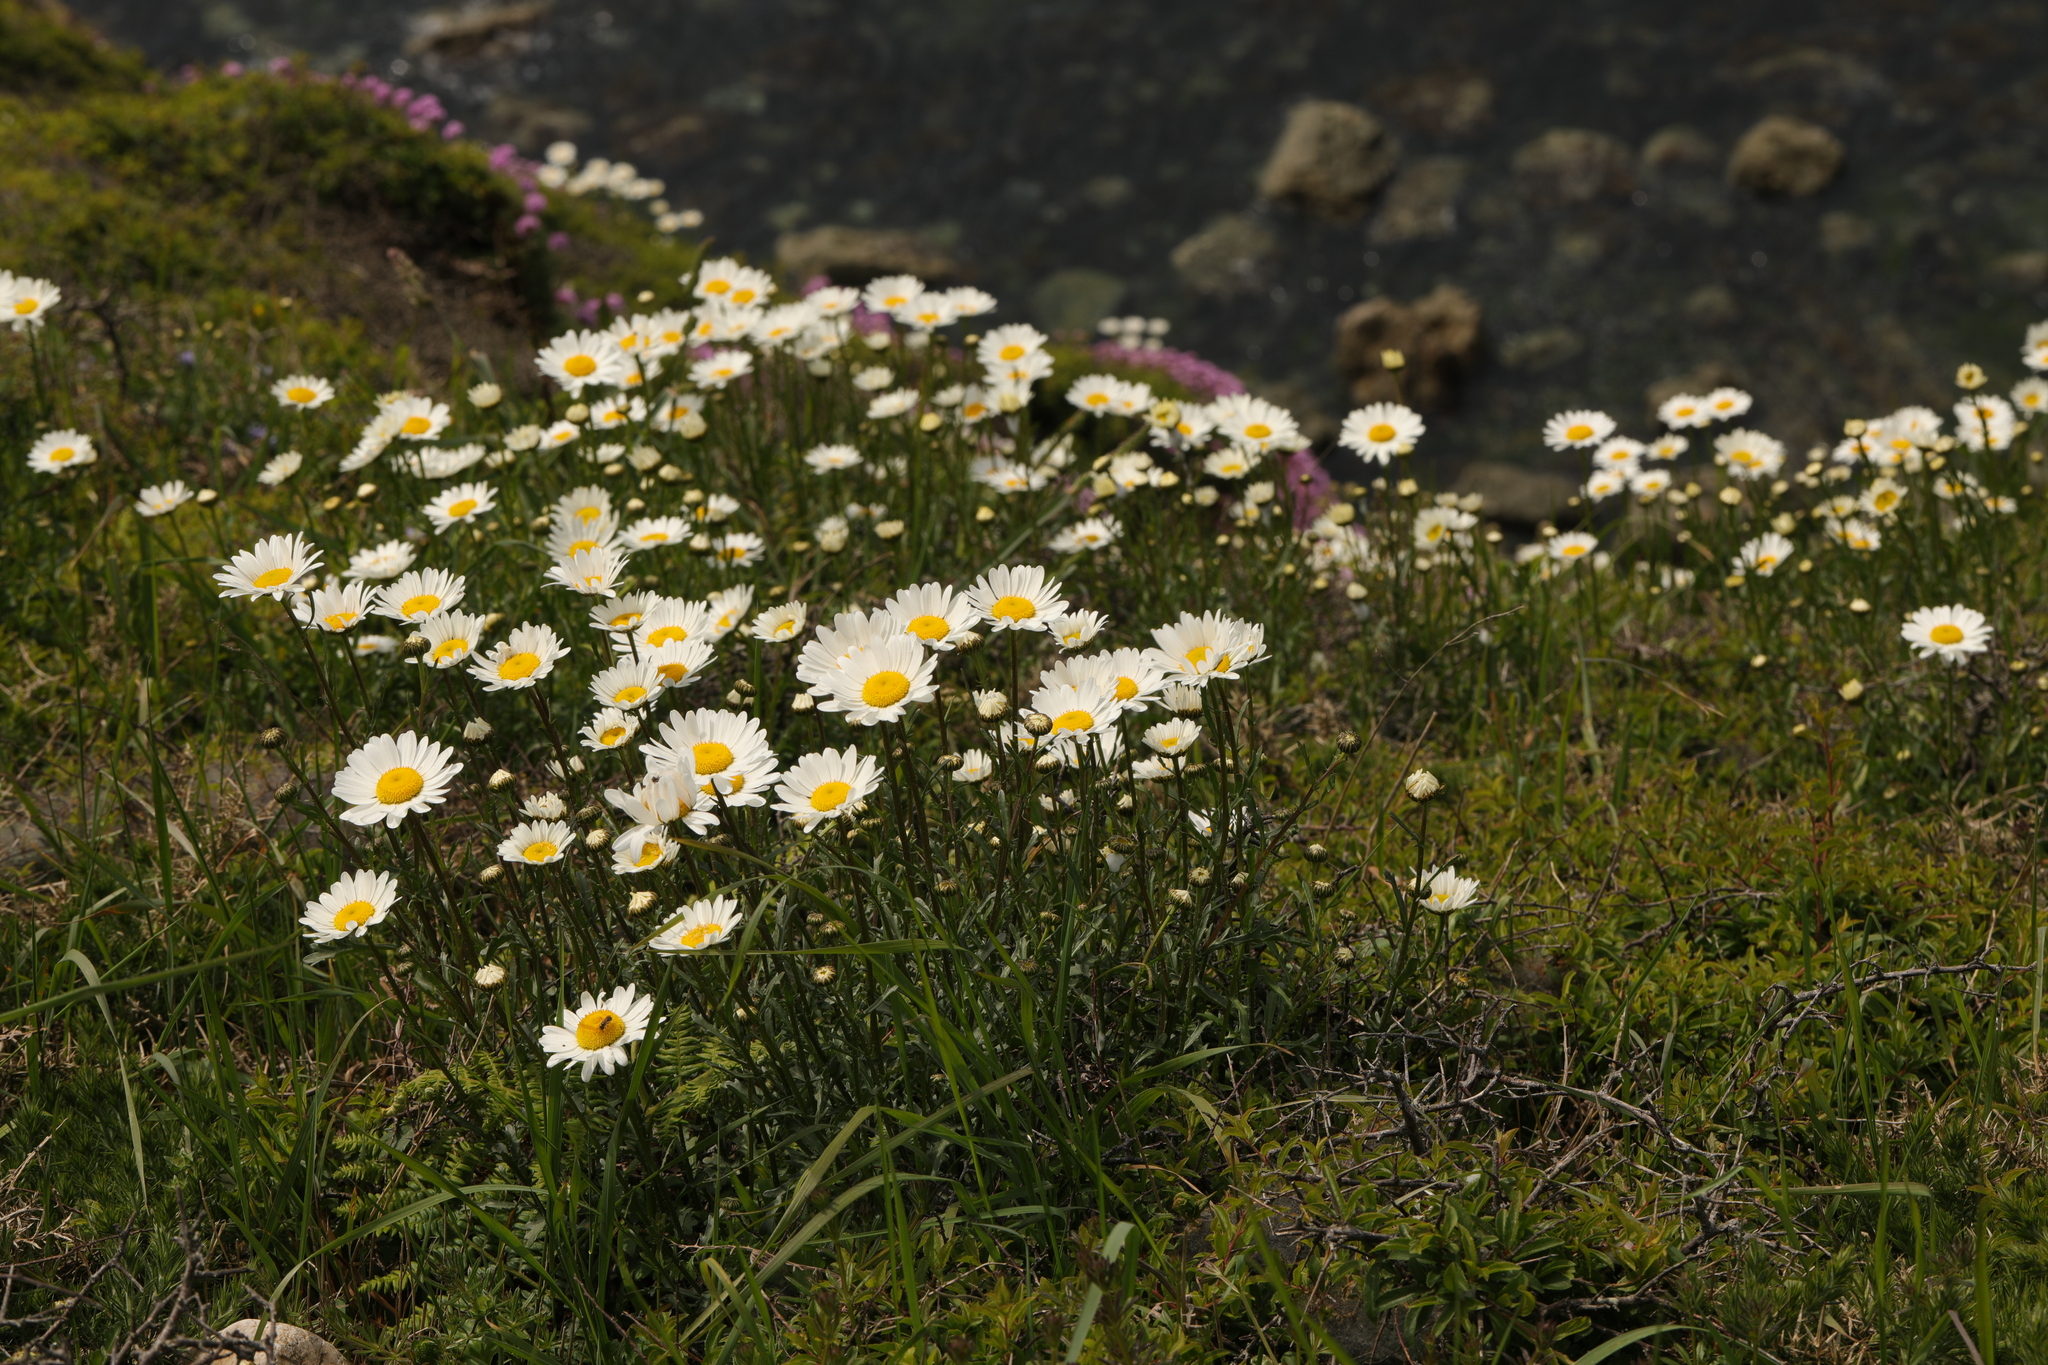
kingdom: Plantae
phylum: Tracheophyta
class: Magnoliopsida
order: Asterales
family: Asteraceae
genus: Leucanthemum
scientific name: Leucanthemum vulgare
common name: Oxeye daisy
